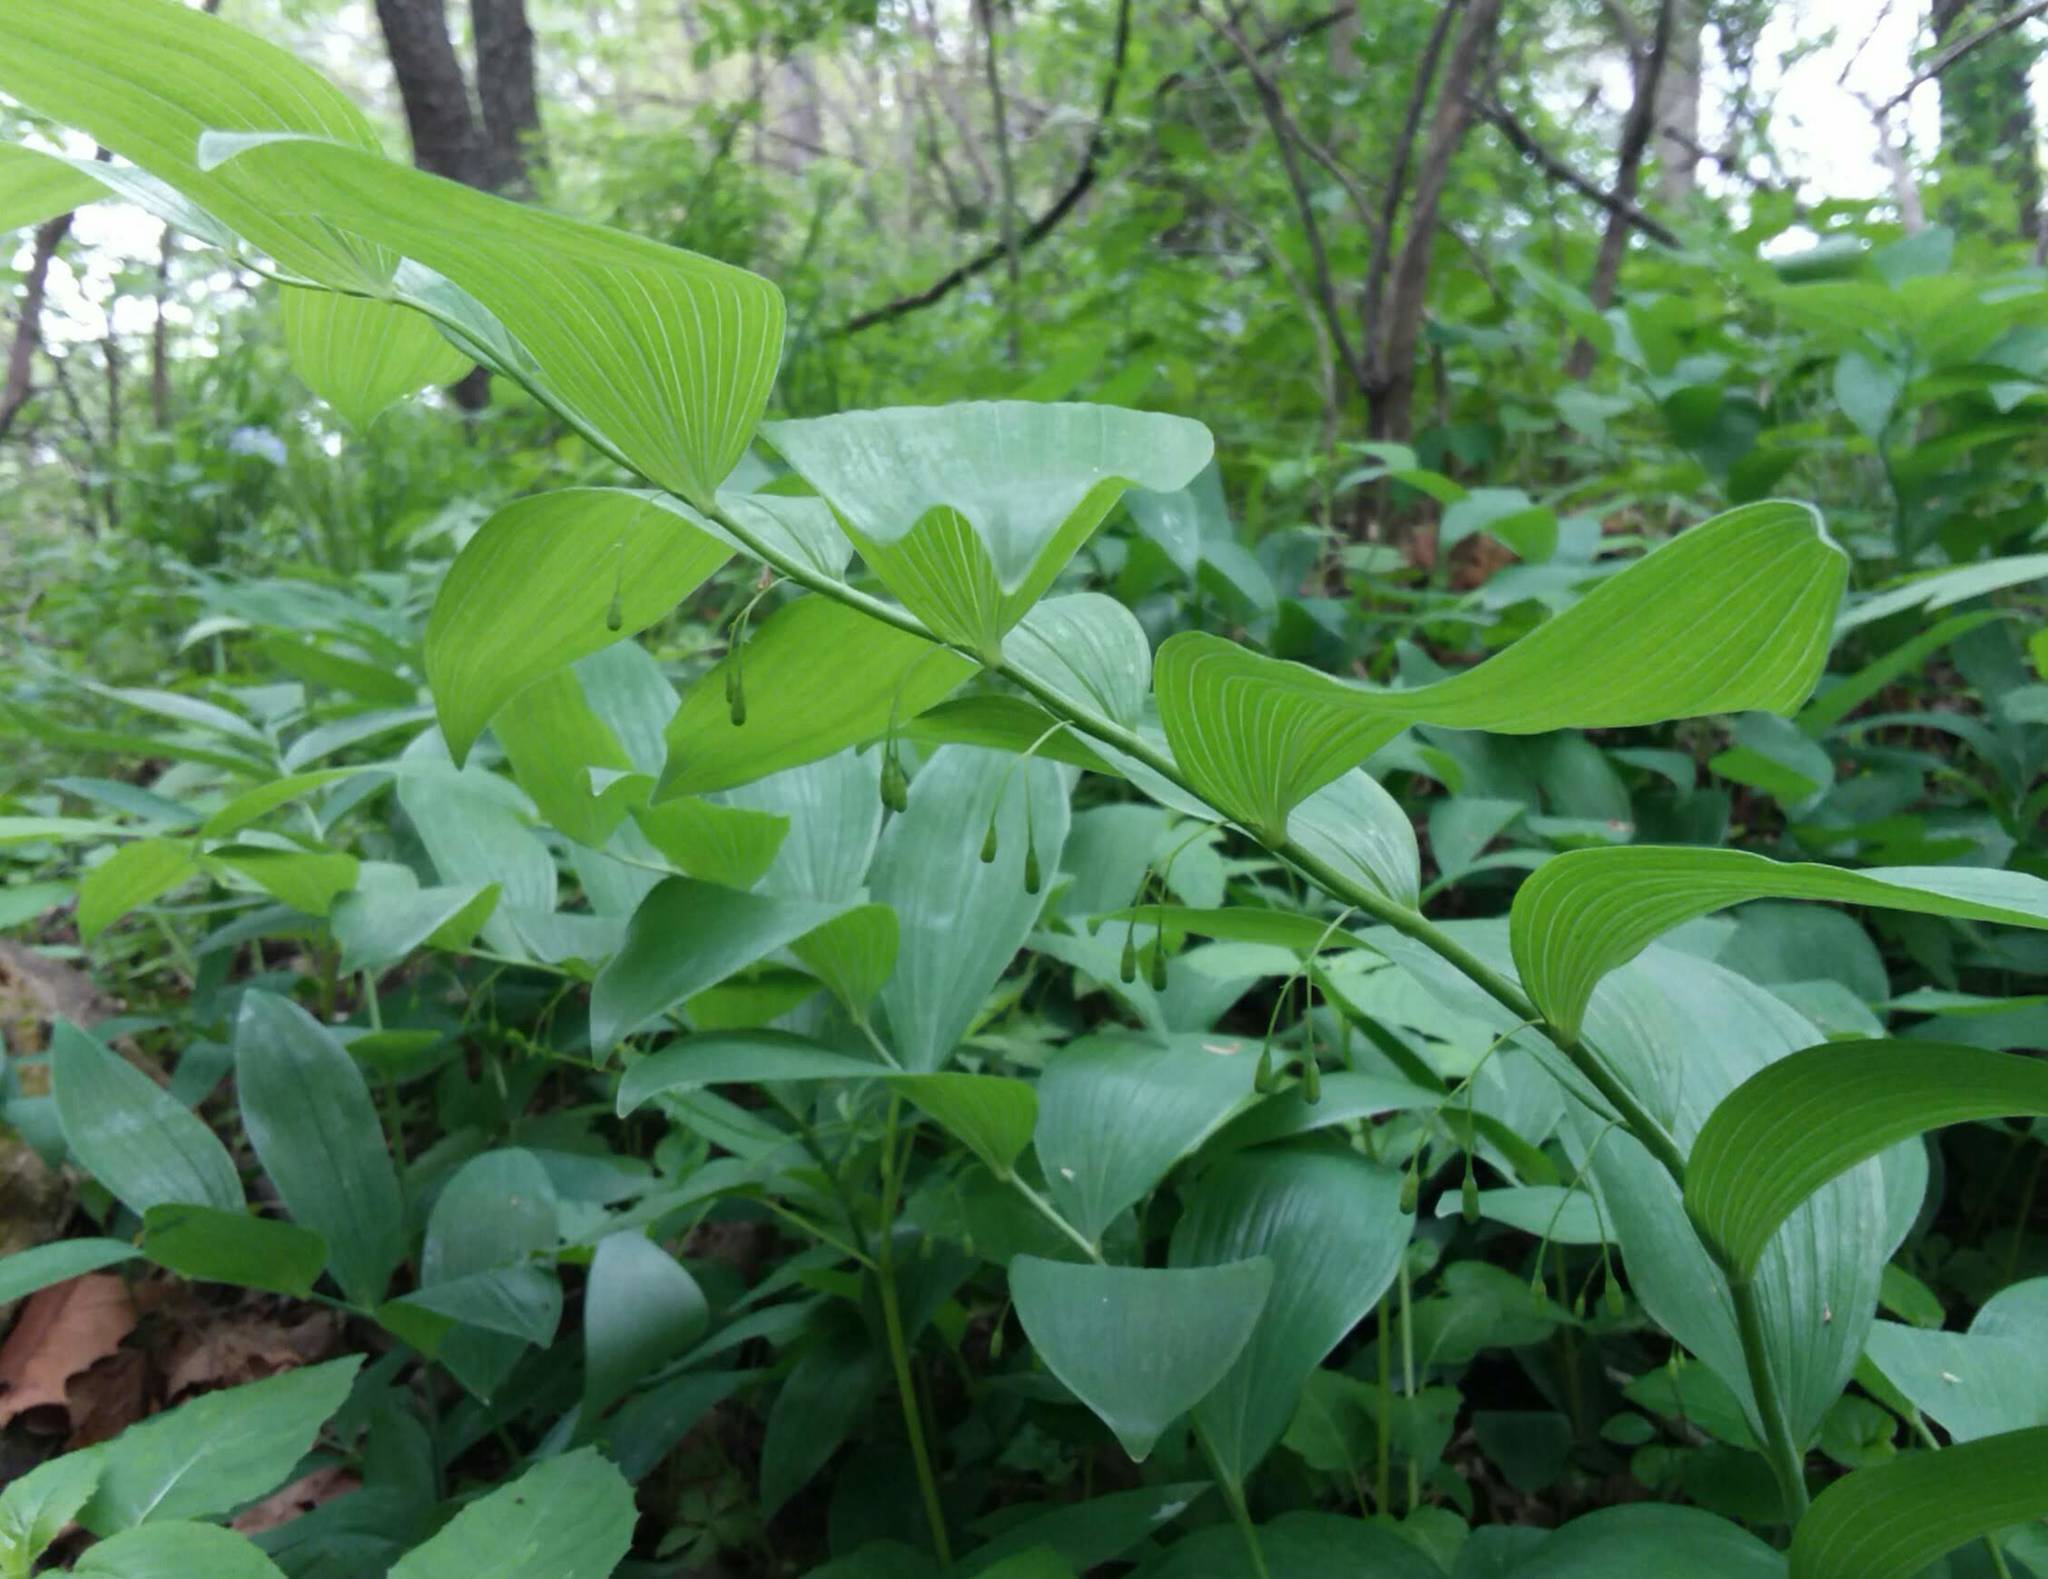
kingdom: Plantae
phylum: Tracheophyta
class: Liliopsida
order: Asparagales
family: Asparagaceae
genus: Polygonatum
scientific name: Polygonatum biflorum
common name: American solomon's-seal
